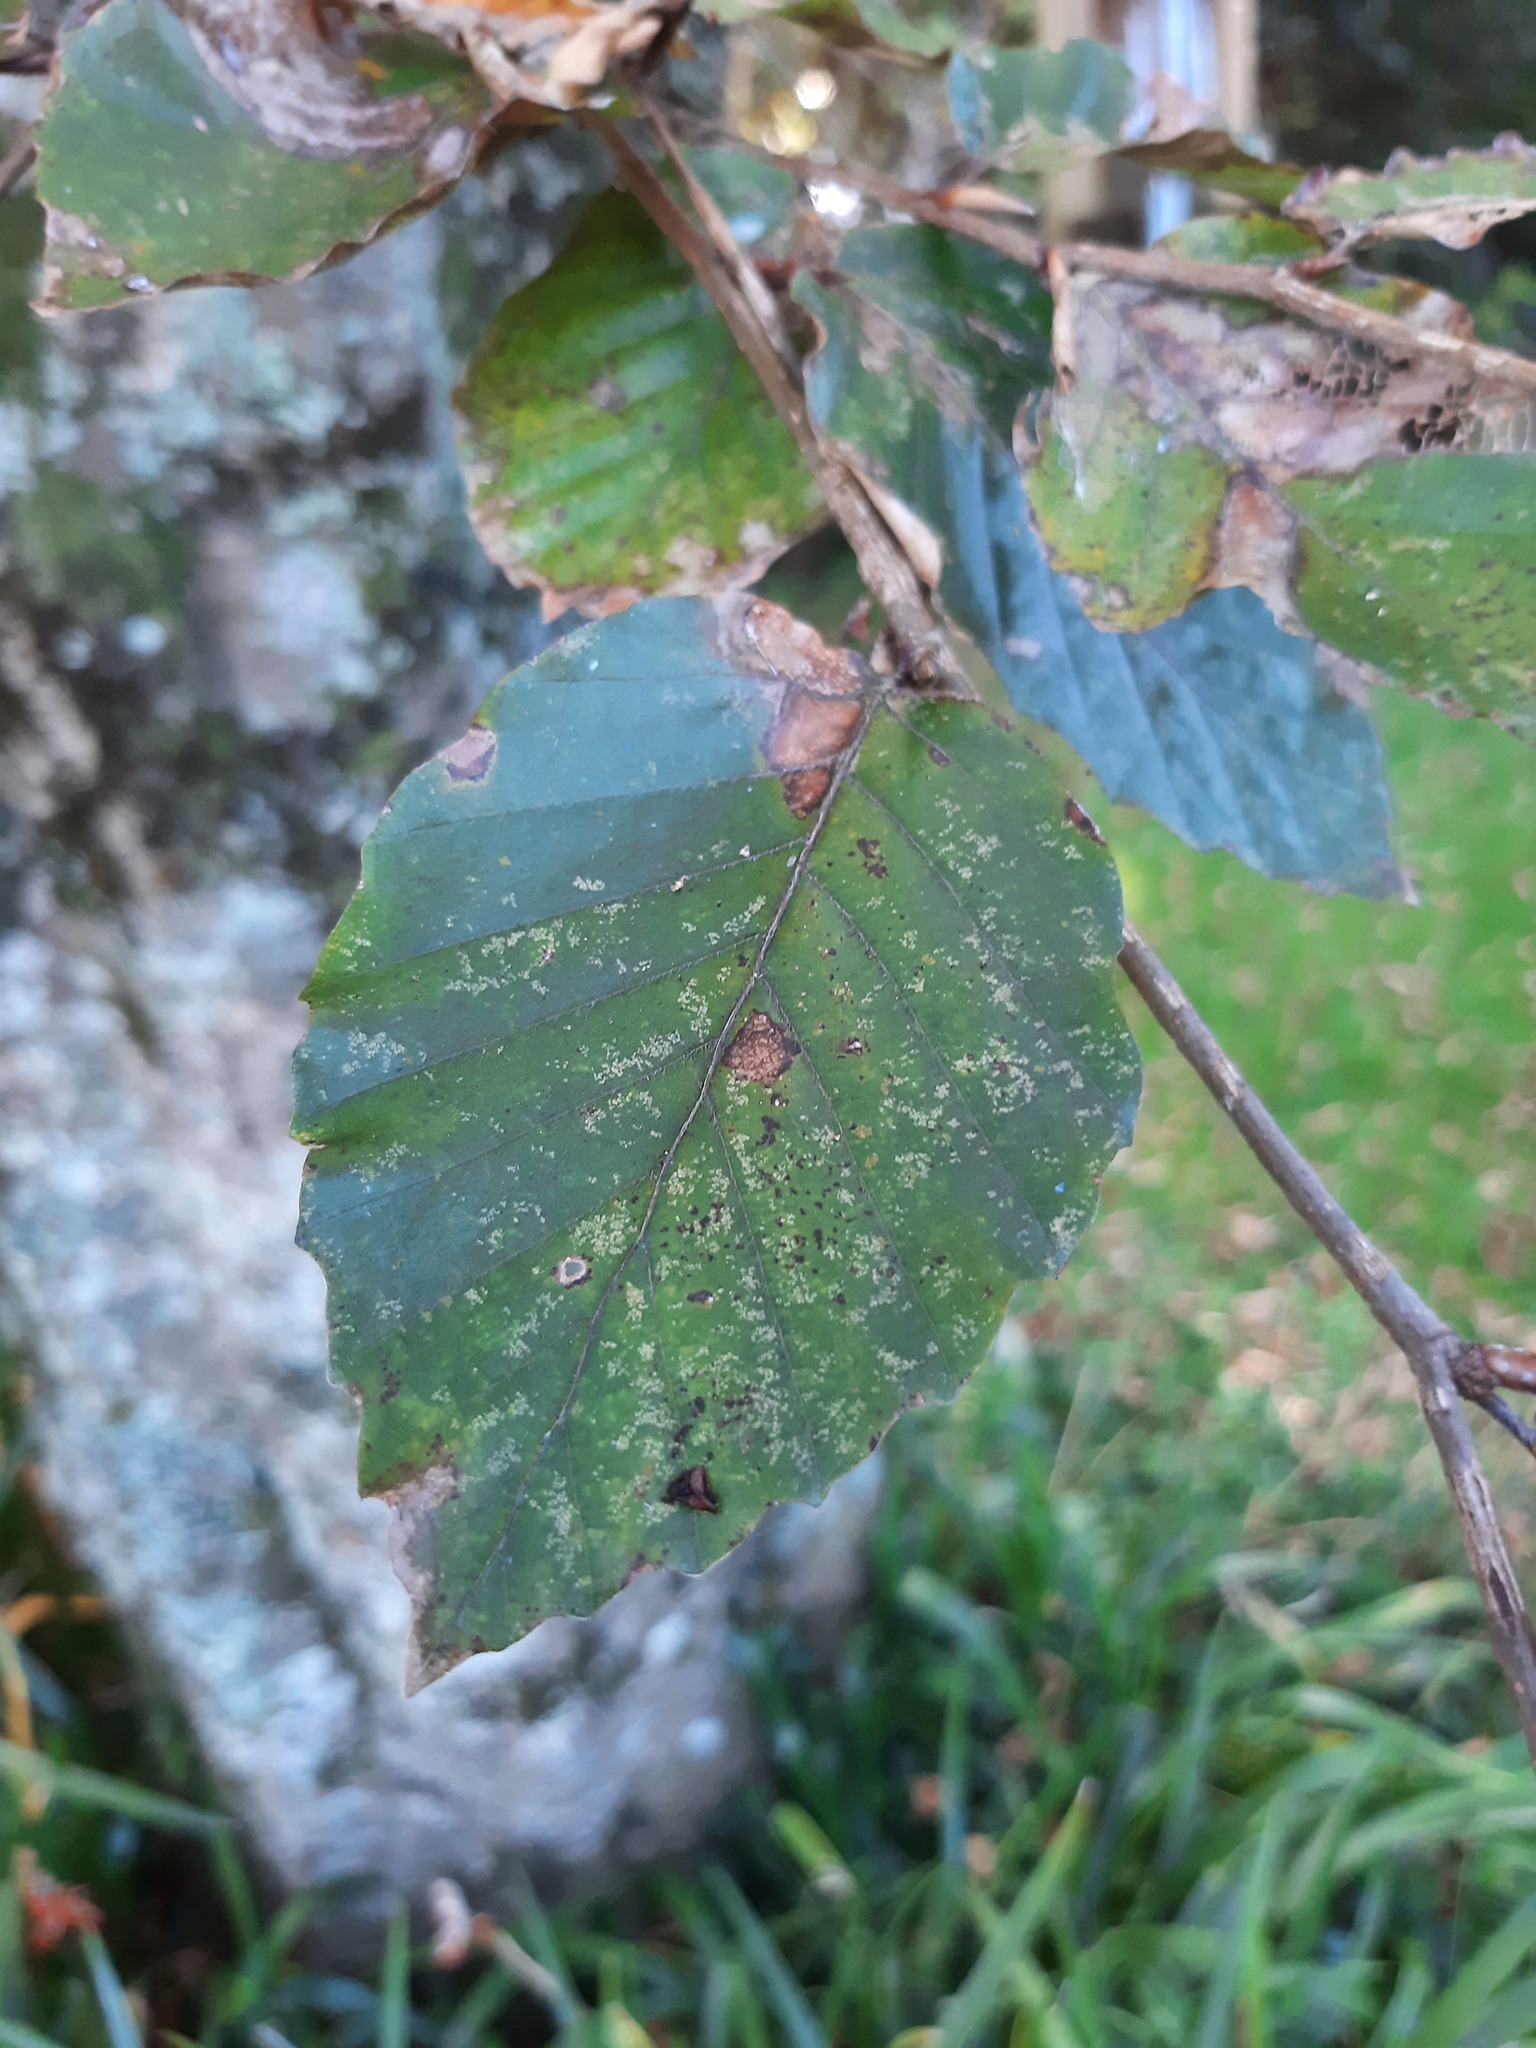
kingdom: Plantae
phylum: Tracheophyta
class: Magnoliopsida
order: Fagales
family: Fagaceae
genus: Fagus
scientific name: Fagus sylvatica
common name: Beech
